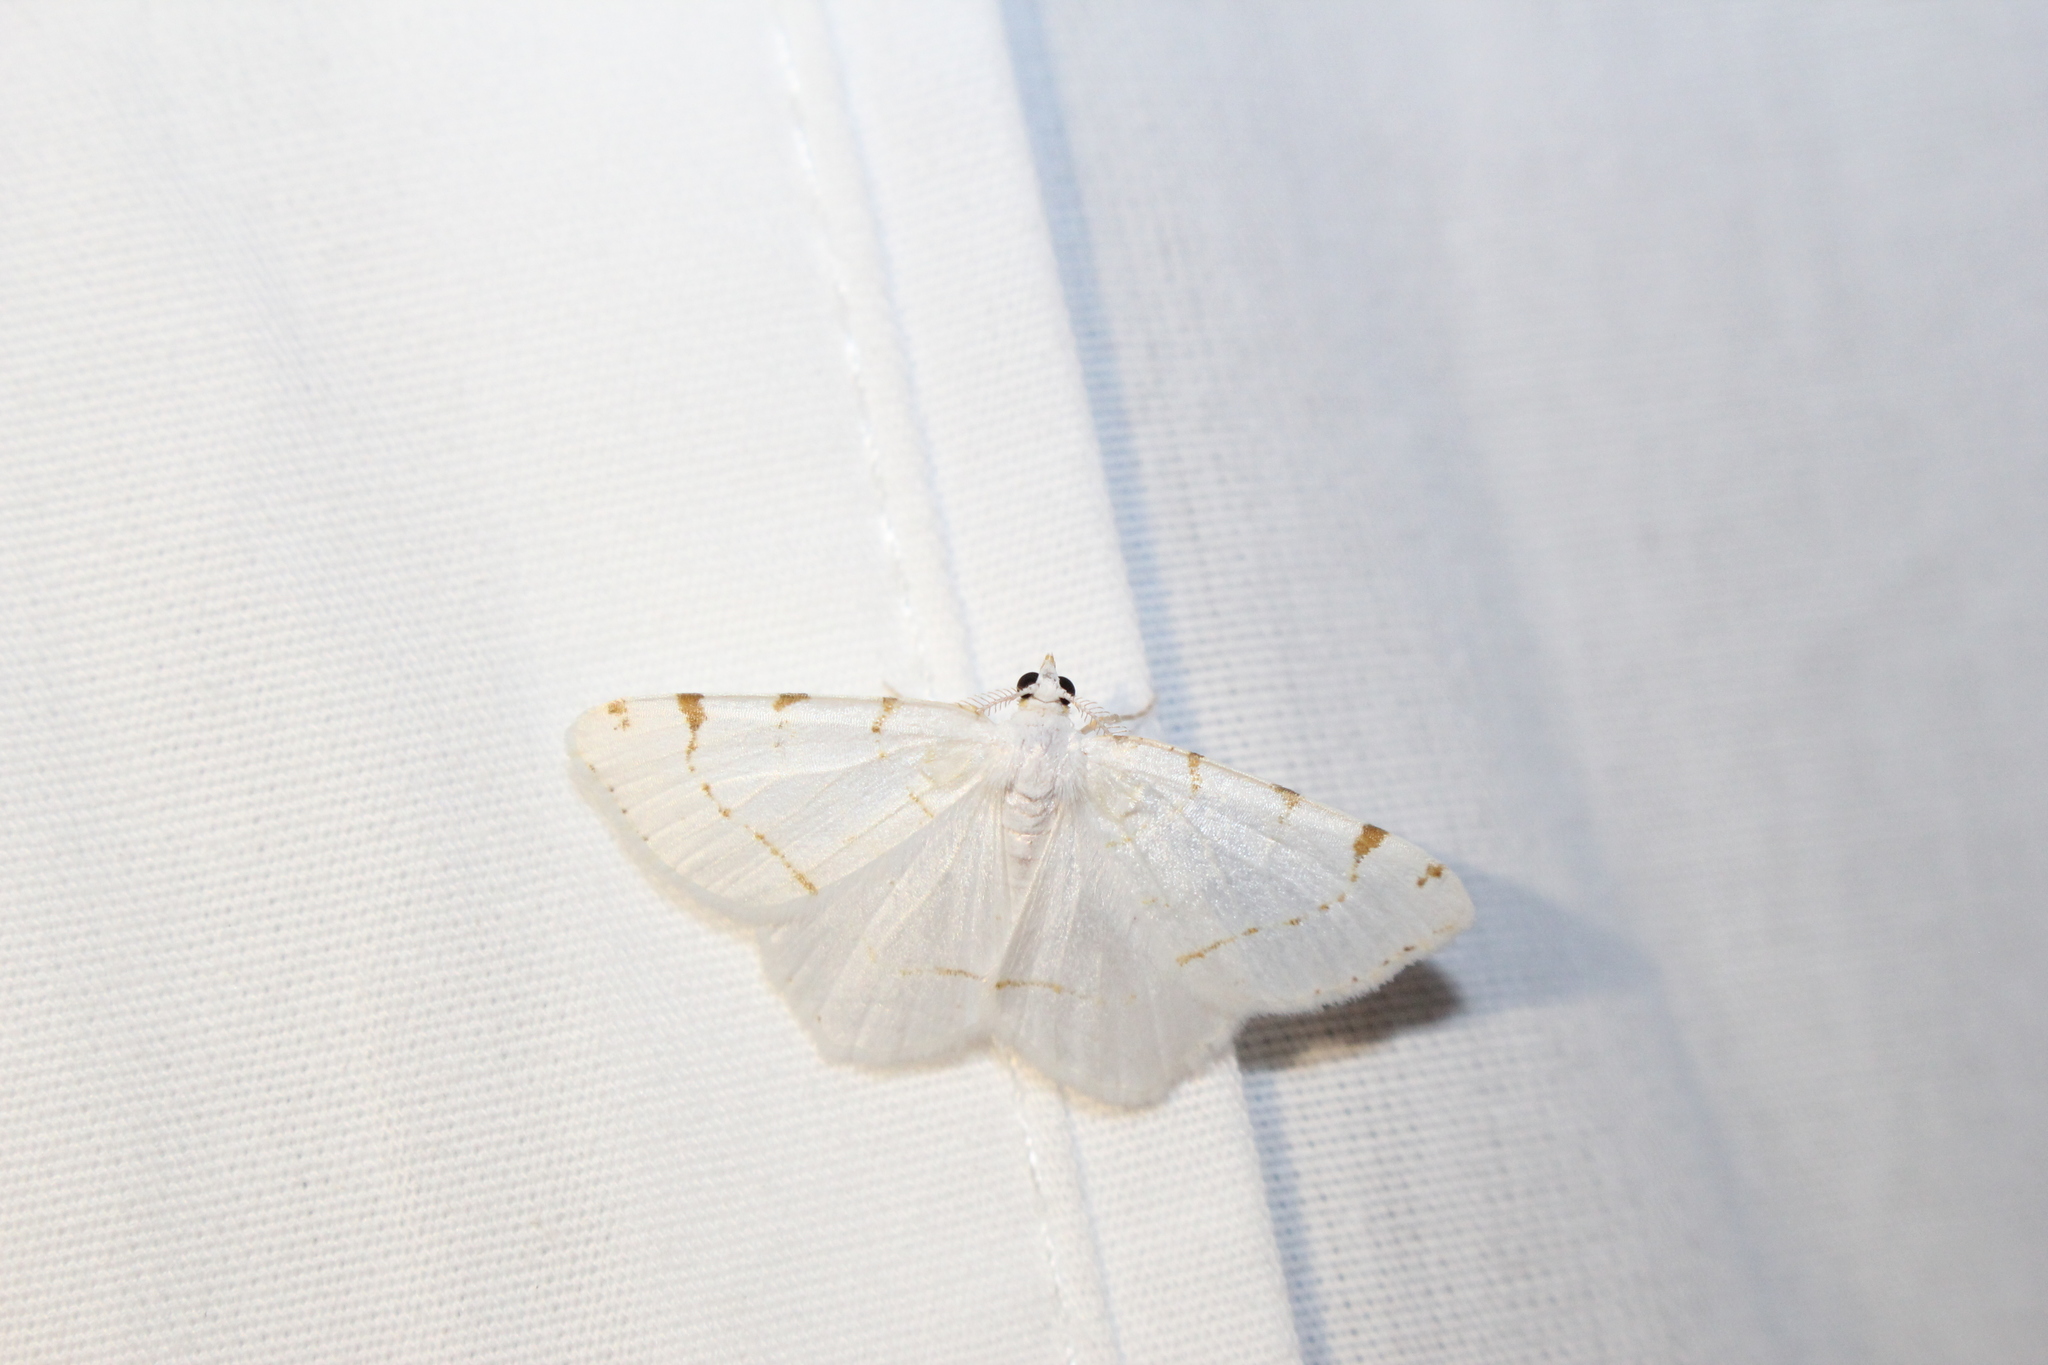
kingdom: Animalia
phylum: Arthropoda
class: Insecta
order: Lepidoptera
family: Geometridae
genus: Macaria
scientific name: Macaria pustularia
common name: Lesser maple spanworm moth
